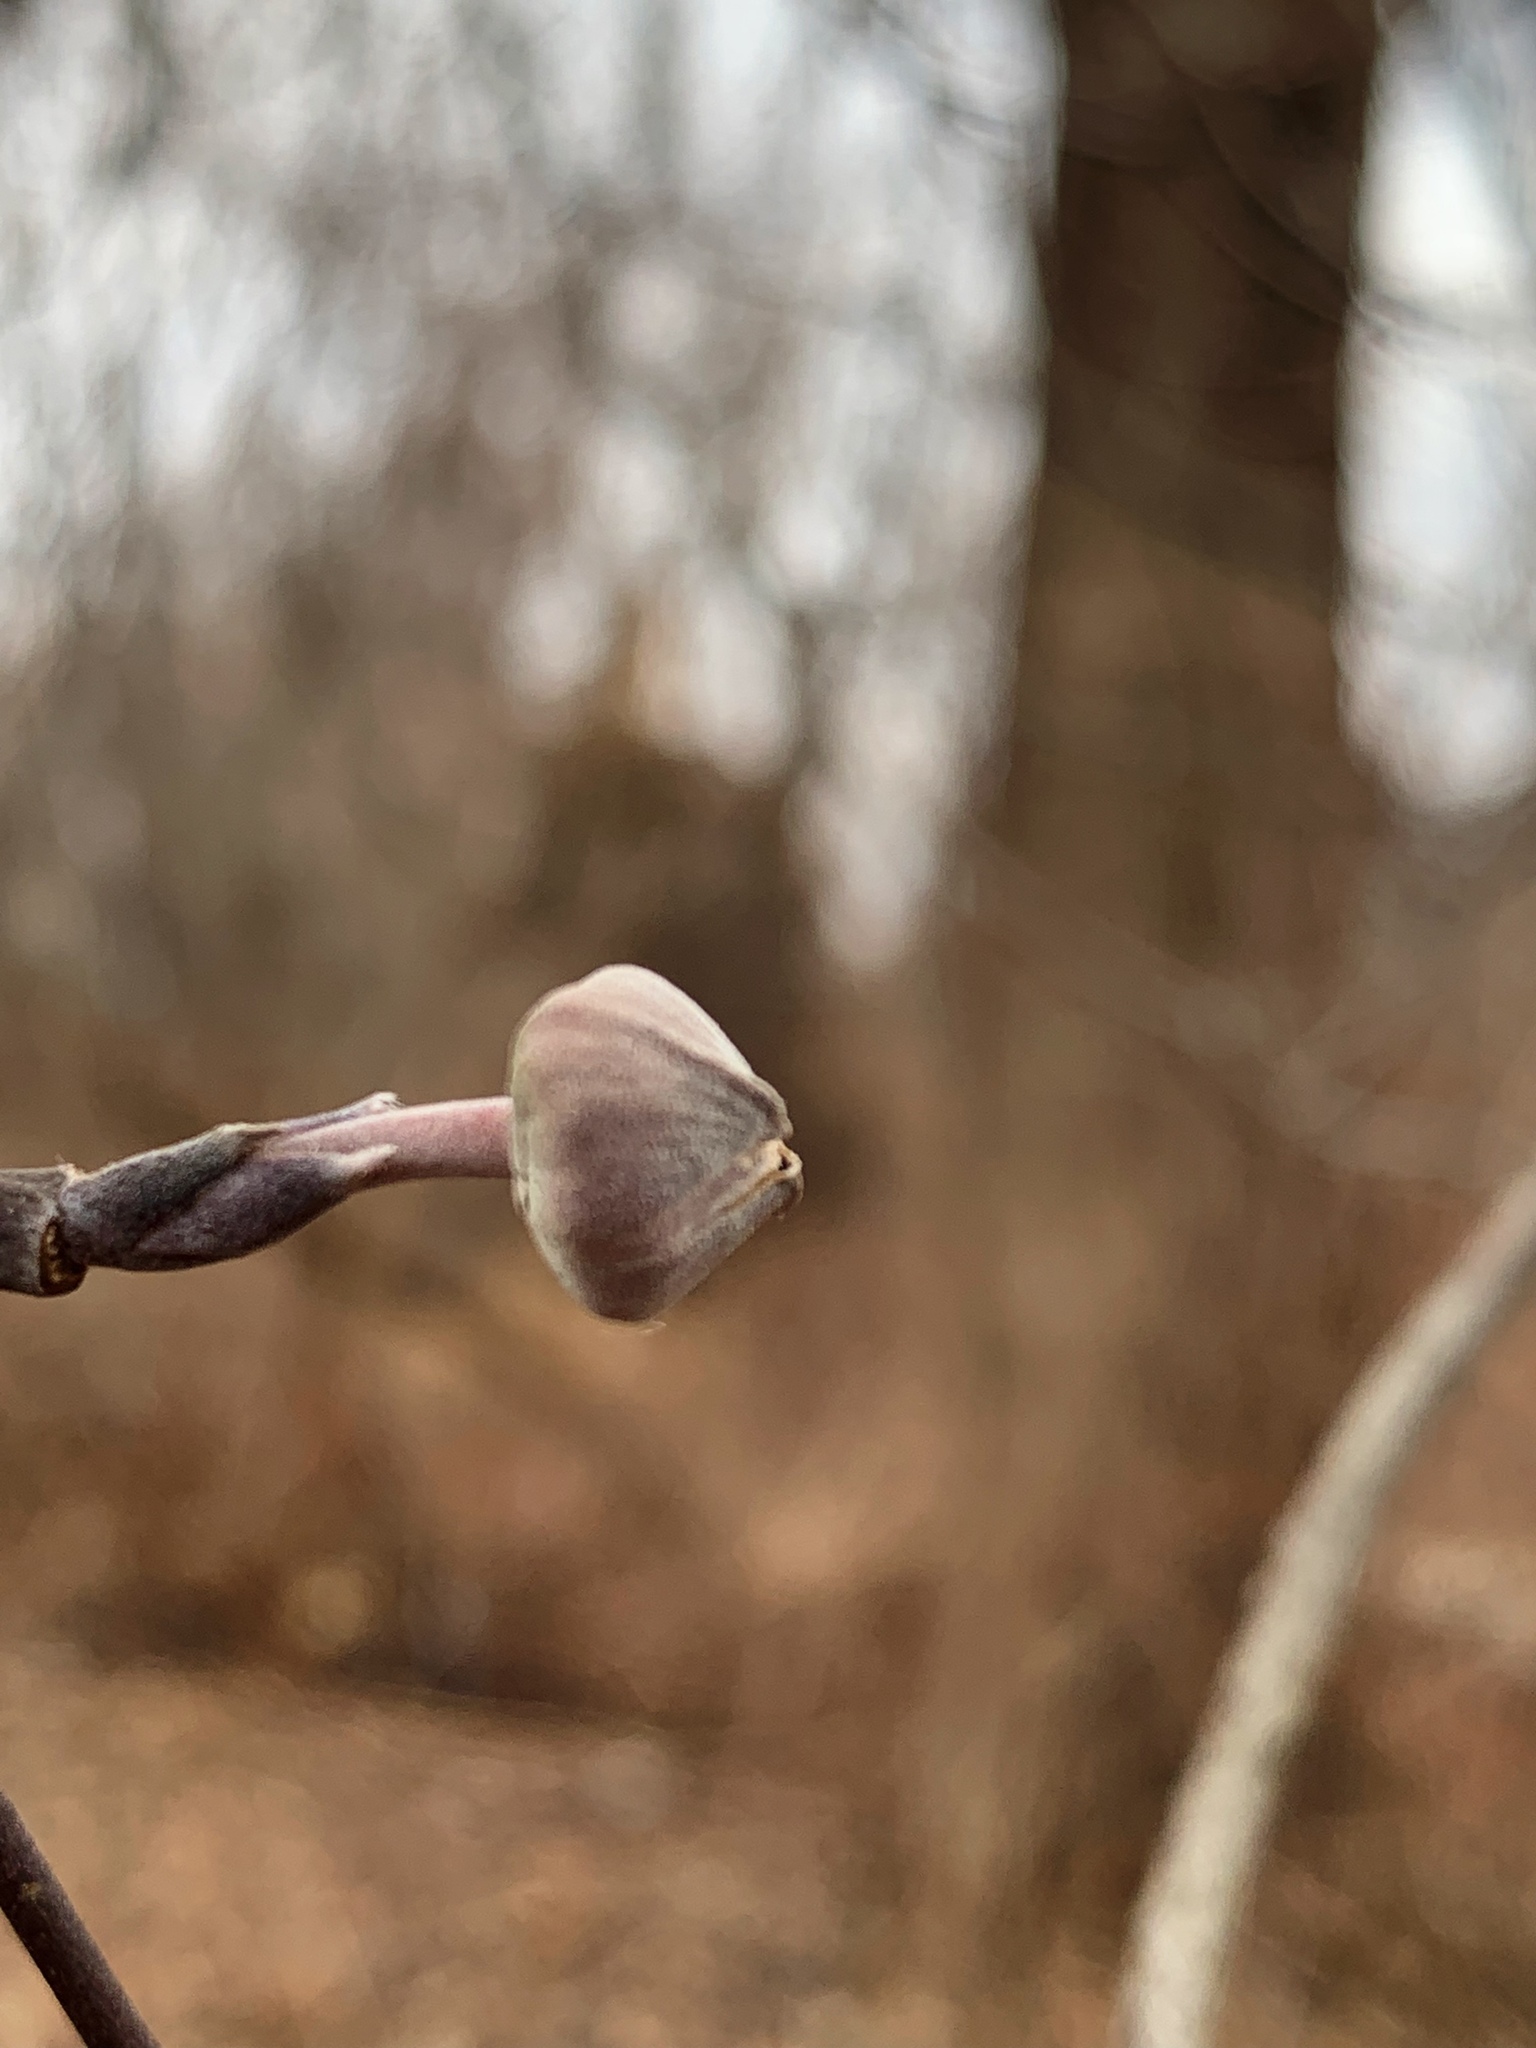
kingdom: Plantae
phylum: Tracheophyta
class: Magnoliopsida
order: Cornales
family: Cornaceae
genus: Cornus
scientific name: Cornus florida
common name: Flowering dogwood
